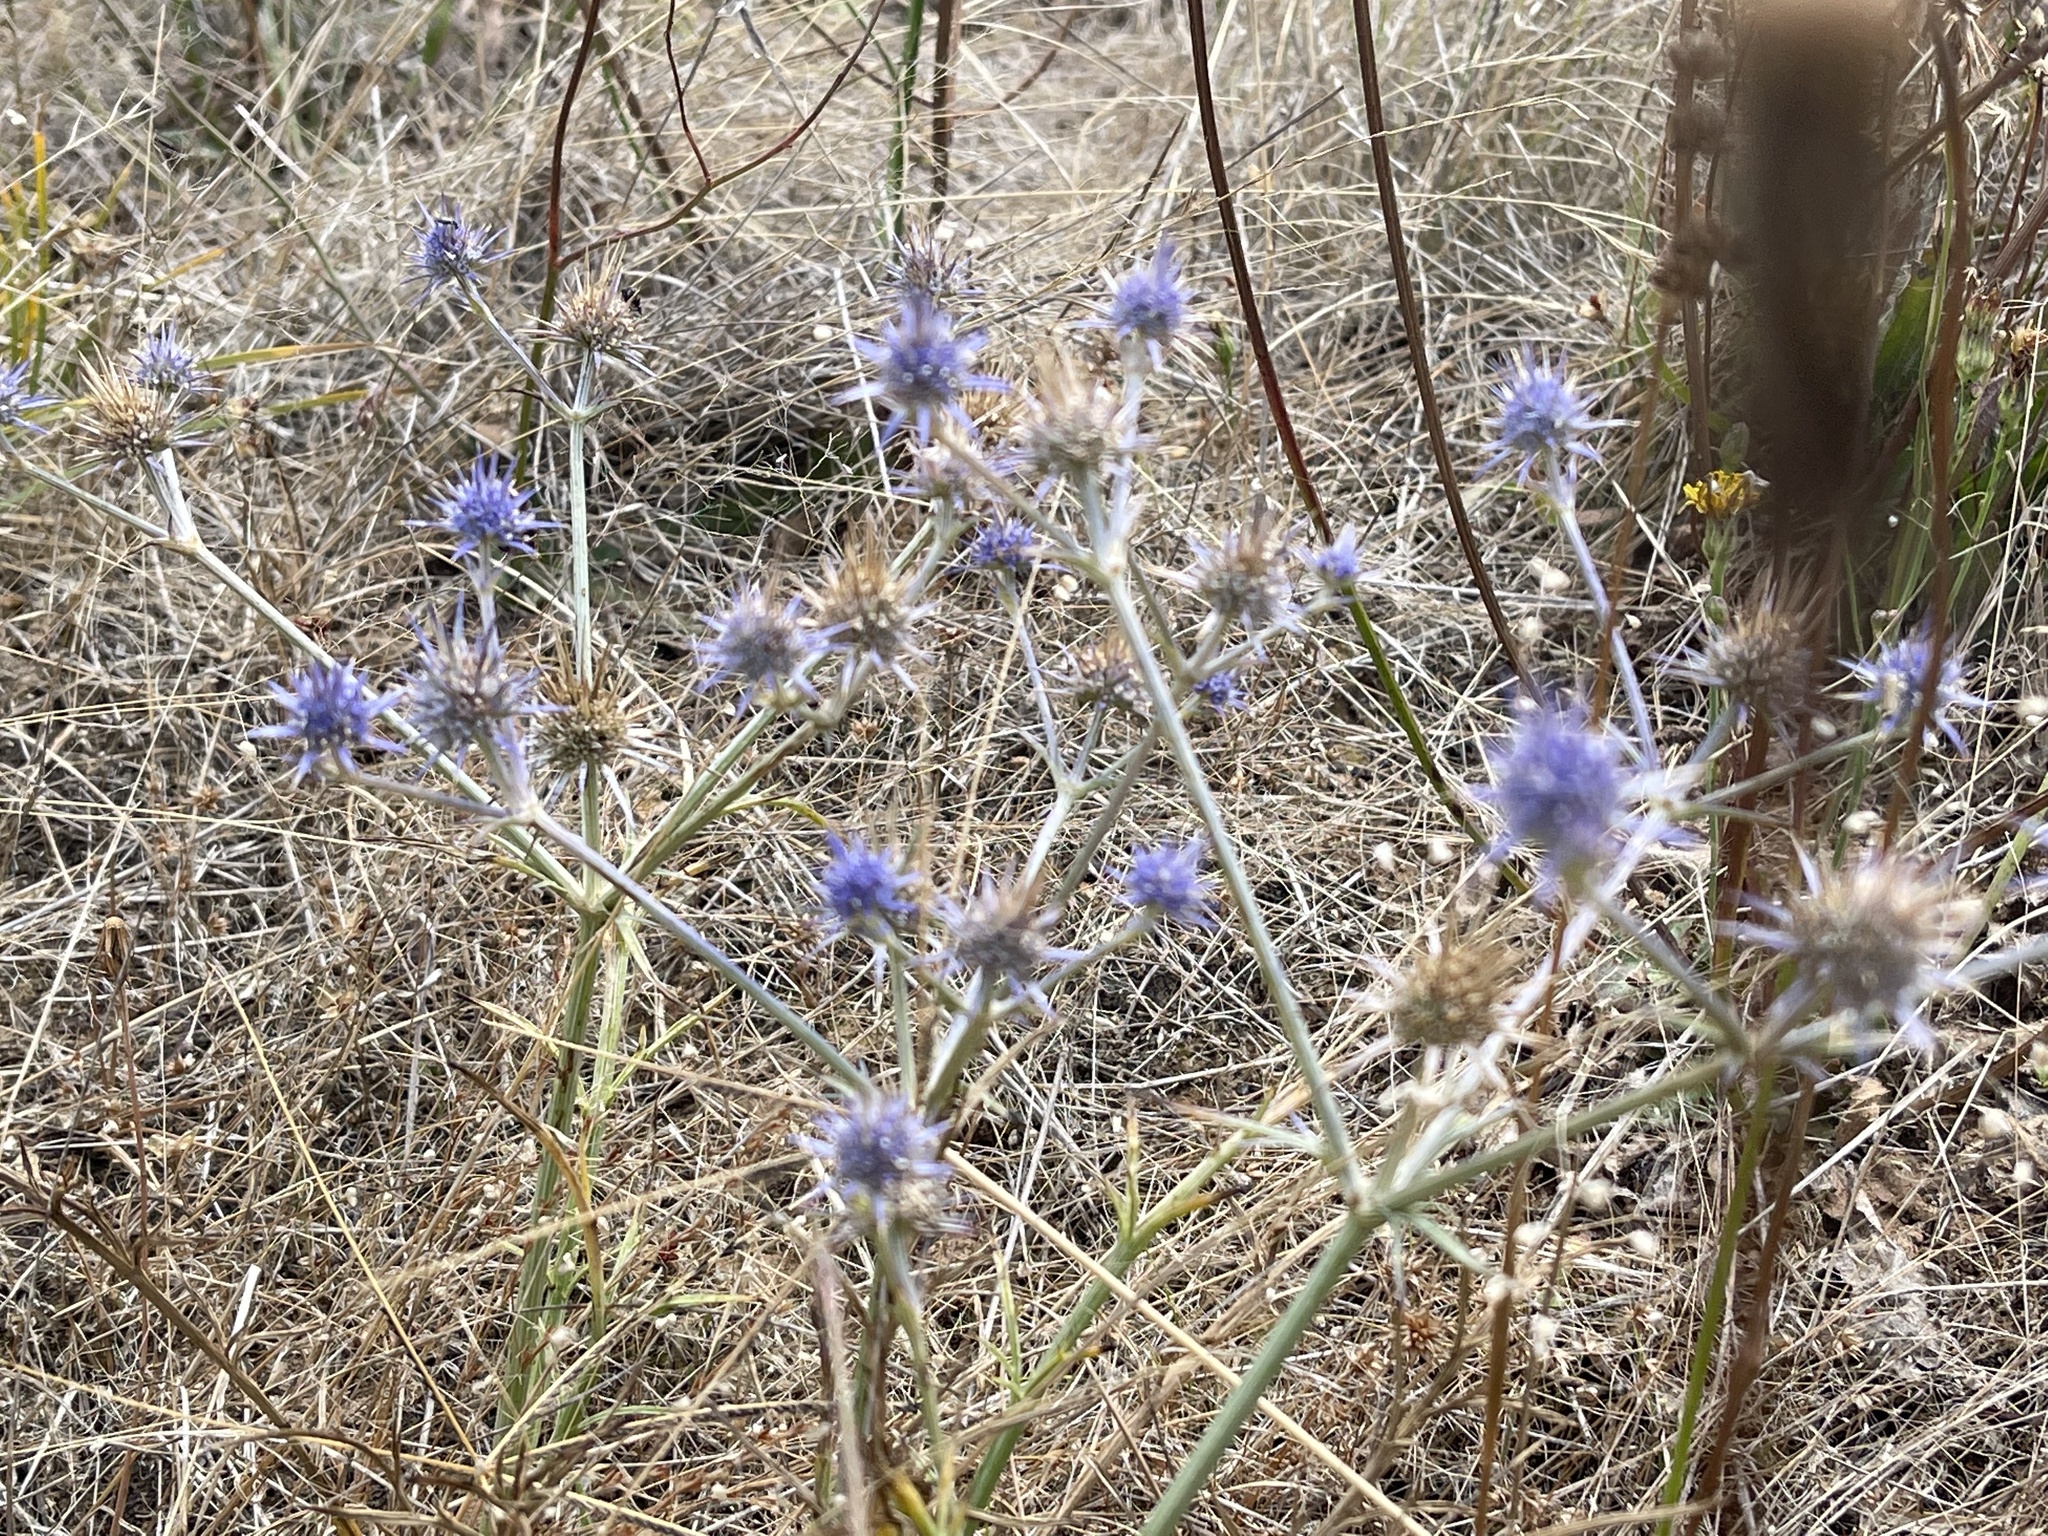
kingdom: Plantae
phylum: Tracheophyta
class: Magnoliopsida
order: Apiales
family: Apiaceae
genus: Eryngium
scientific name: Eryngium ovinum
